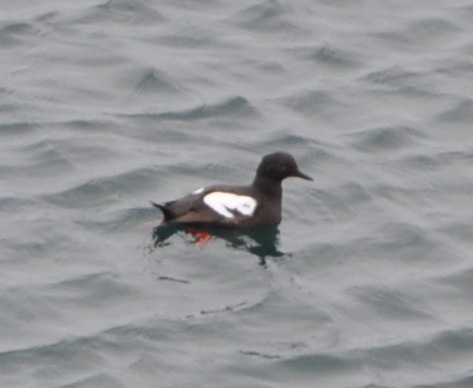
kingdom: Animalia
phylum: Chordata
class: Aves
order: Charadriiformes
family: Alcidae
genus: Cepphus
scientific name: Cepphus columba
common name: Pigeon guillemot
